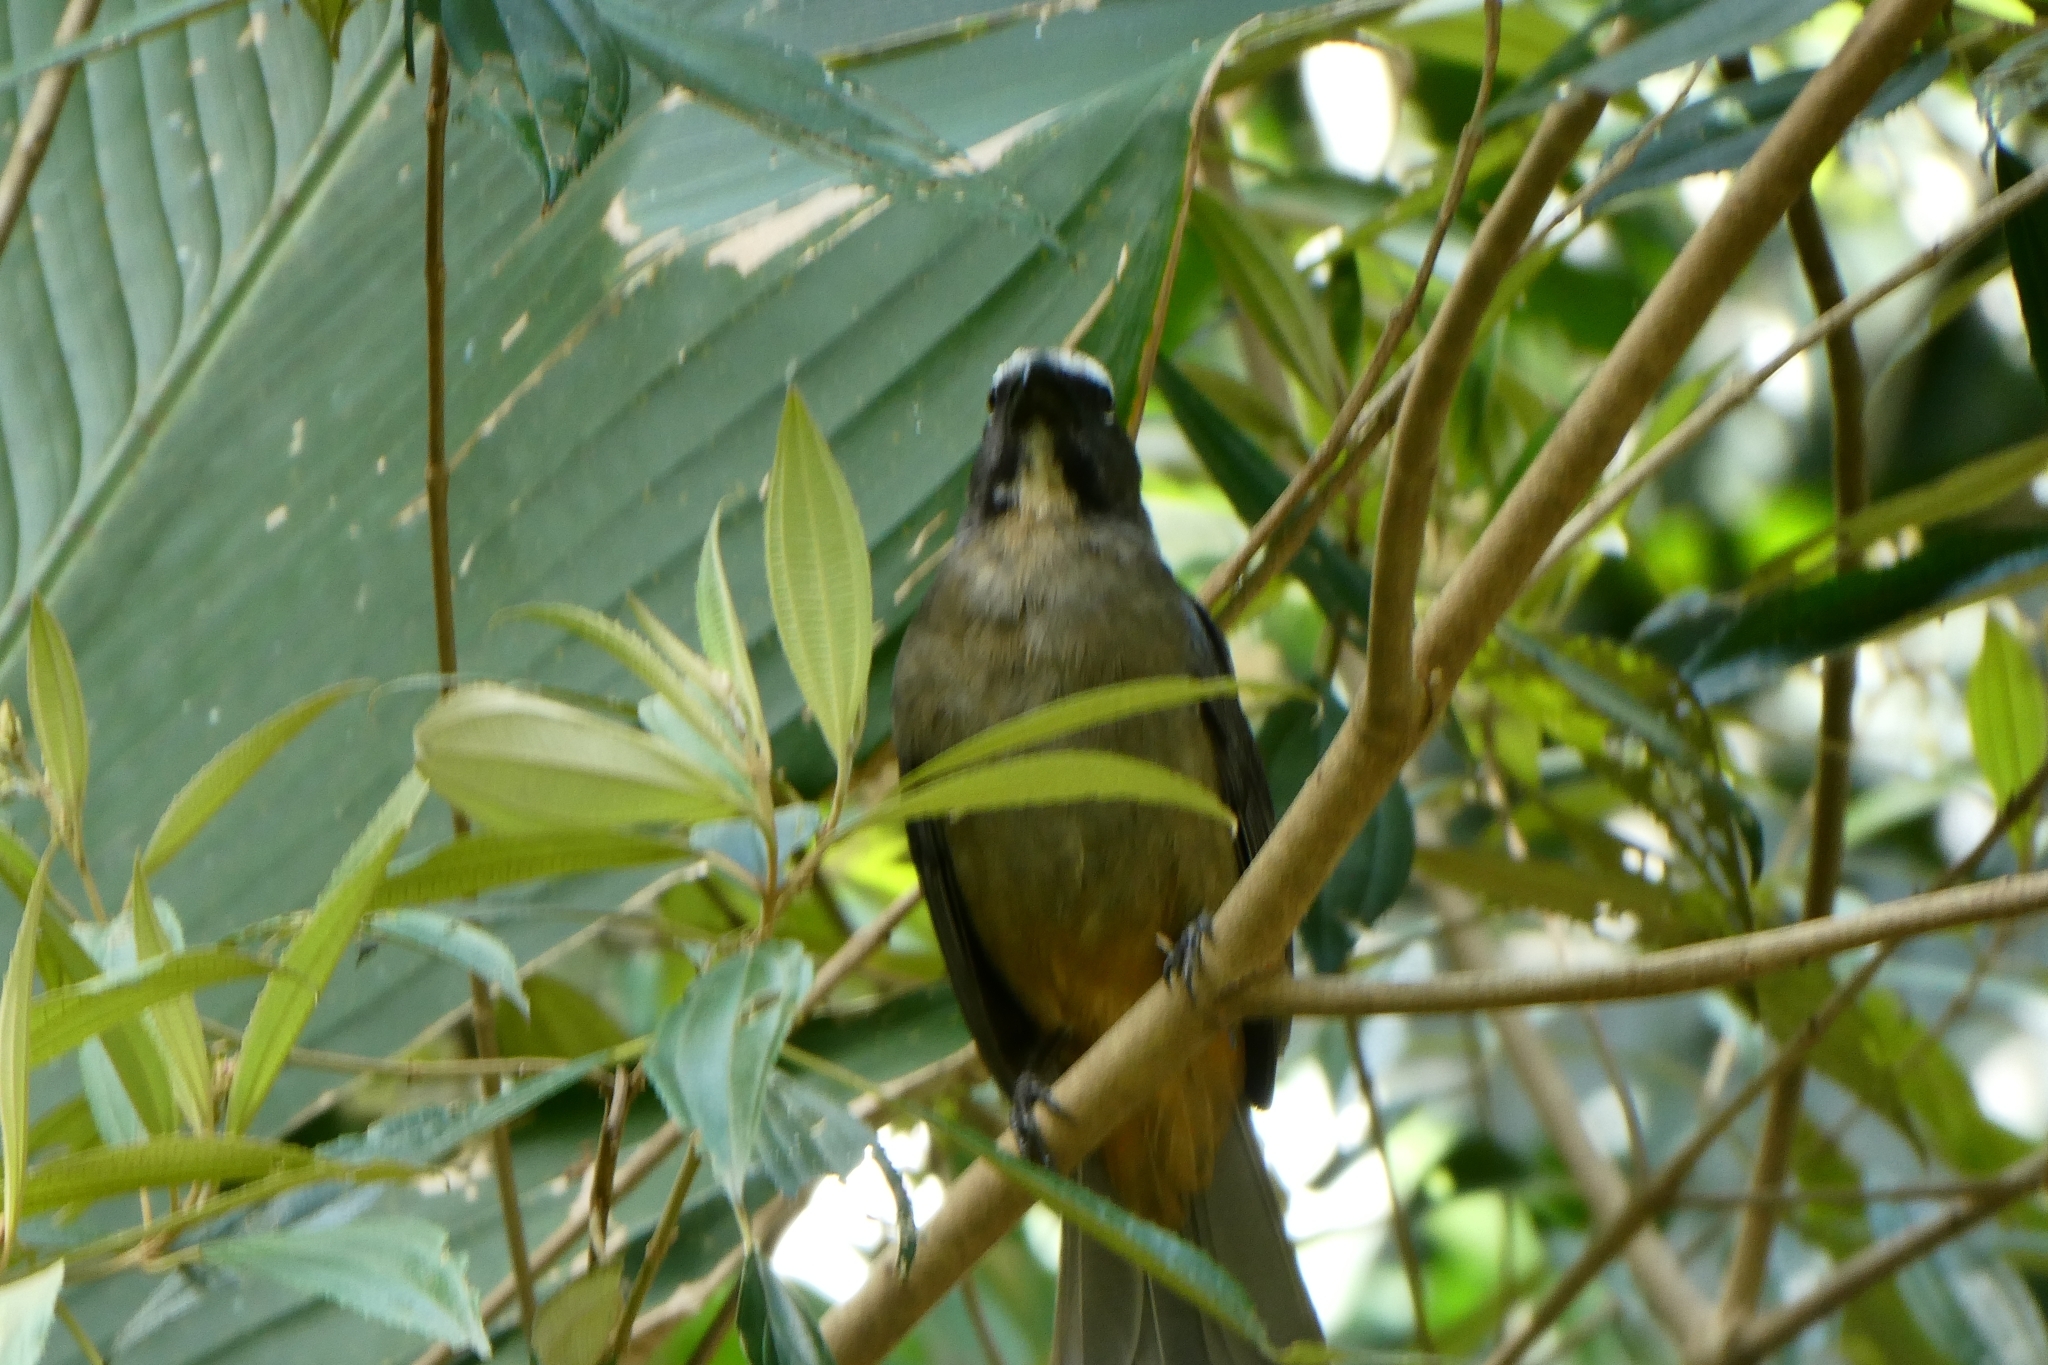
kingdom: Animalia
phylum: Chordata
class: Aves
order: Passeriformes
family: Thraupidae
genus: Saltator
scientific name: Saltator grandis
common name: Cinnamon-bellied saltator
